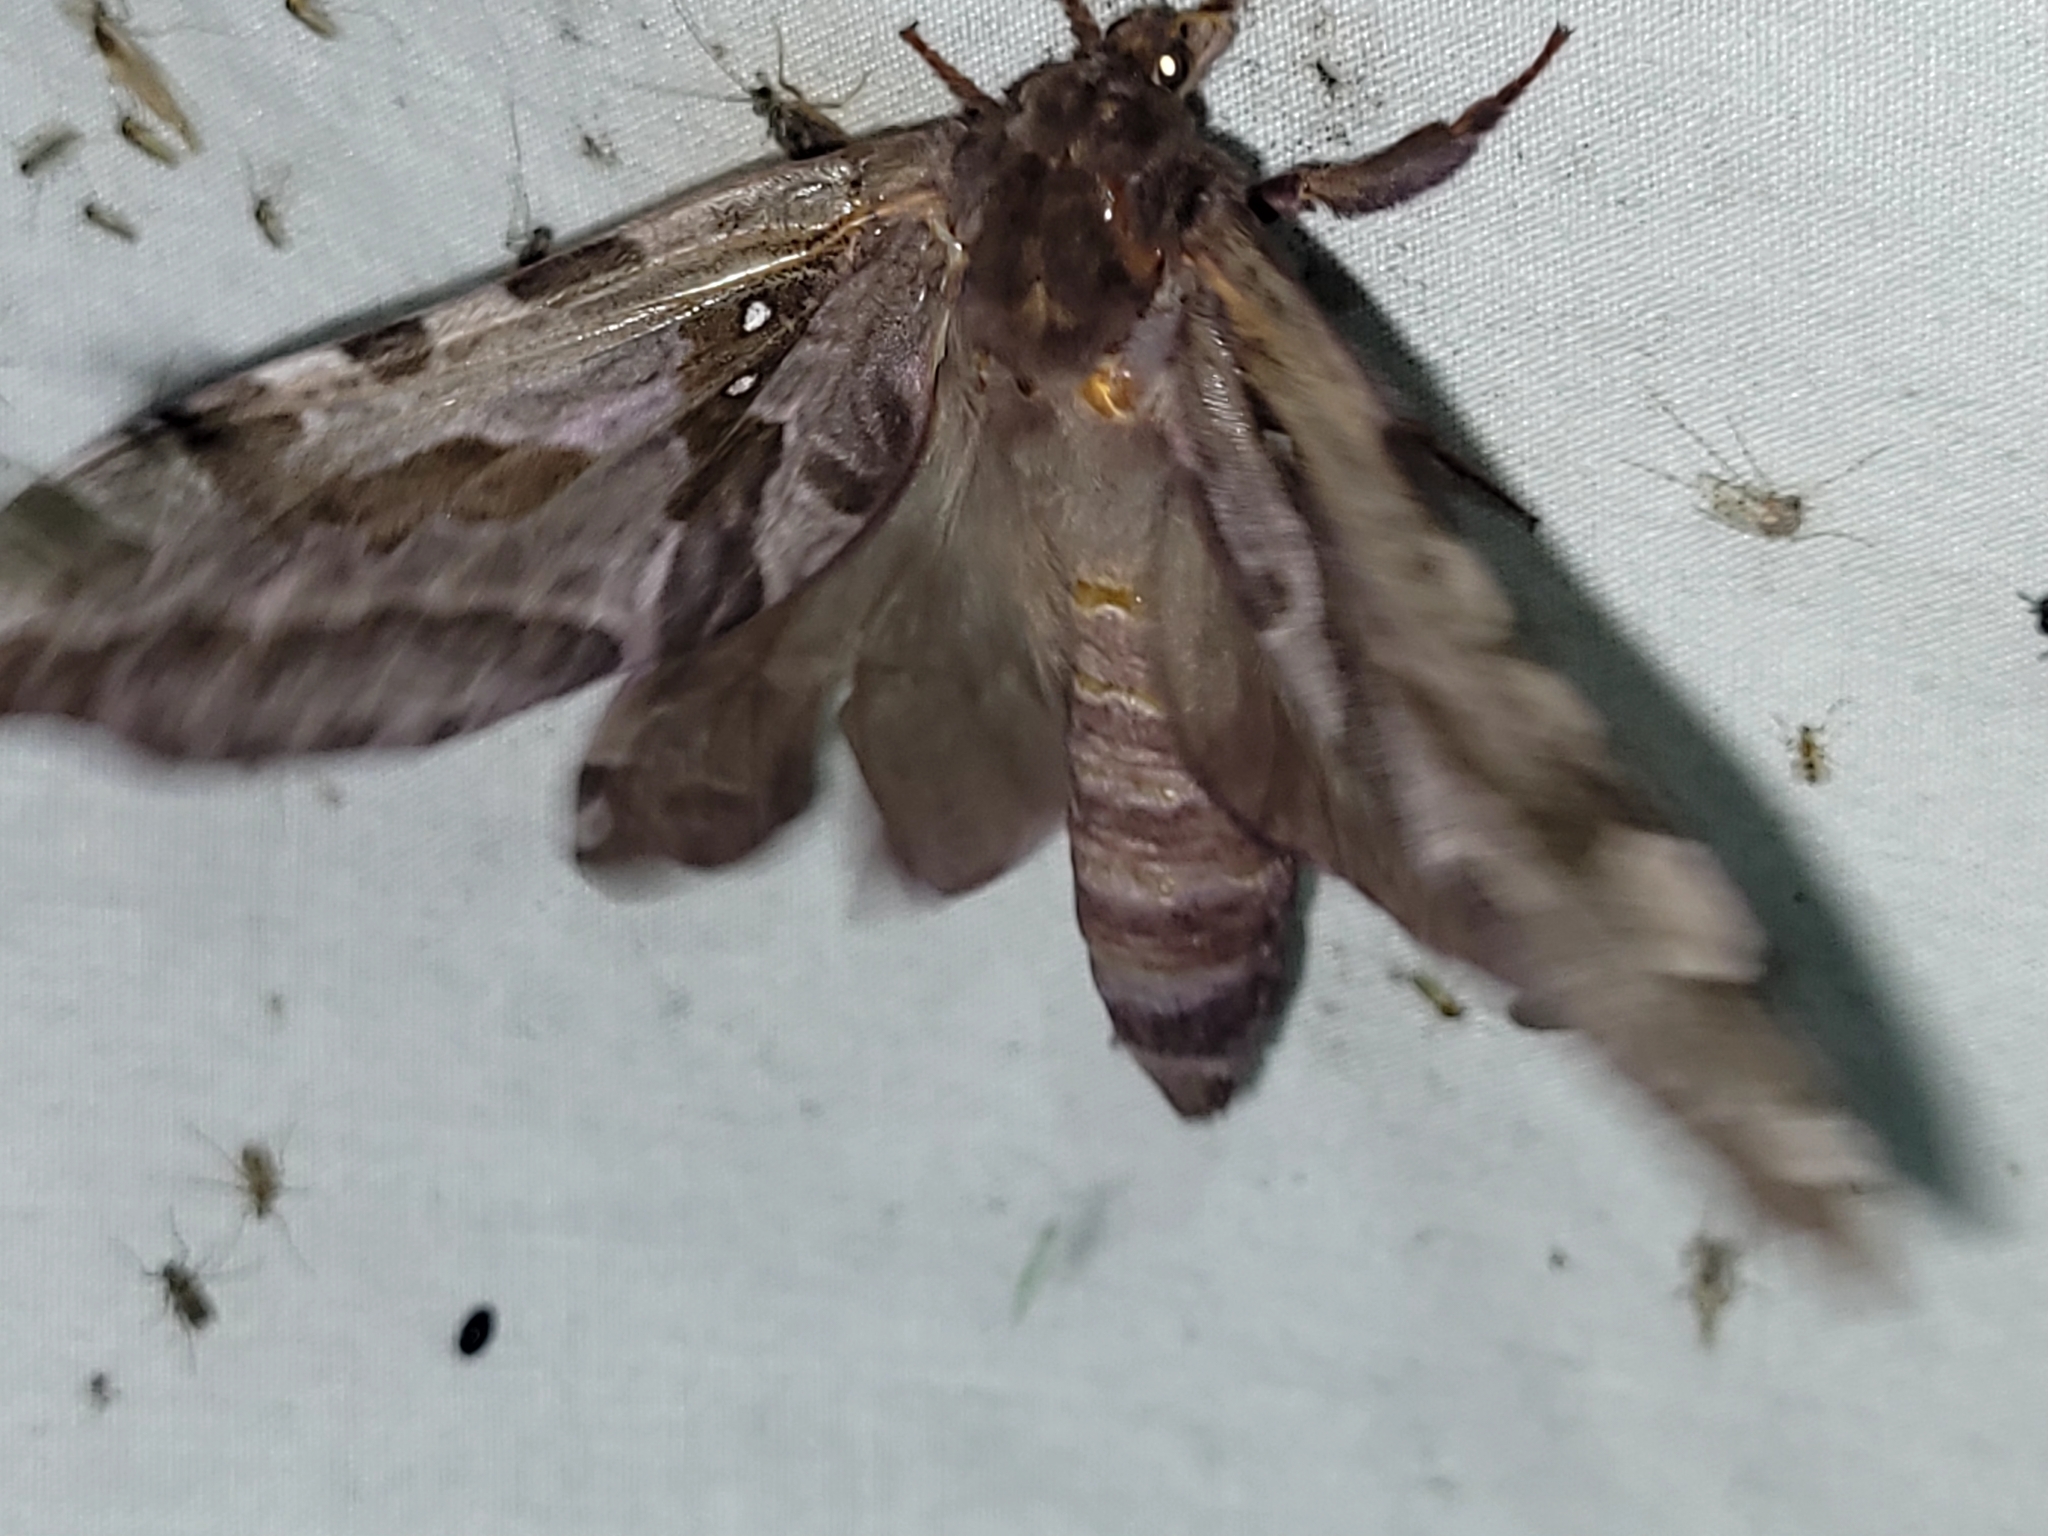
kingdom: Animalia
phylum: Arthropoda
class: Insecta
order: Lepidoptera
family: Hepialidae
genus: Sthenopis
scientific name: Sthenopis purpurascens
